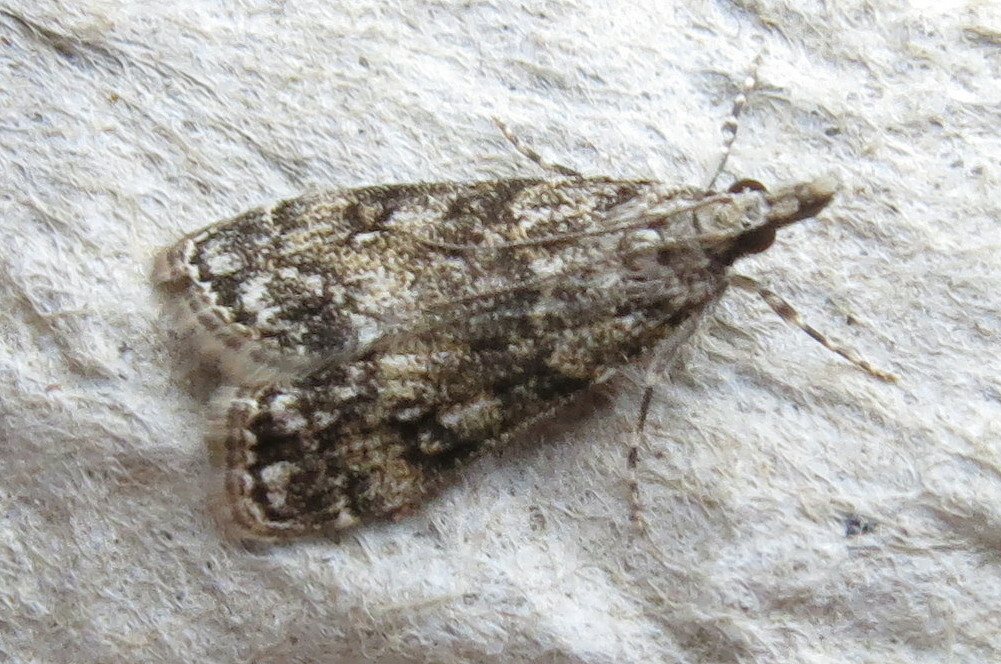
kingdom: Animalia
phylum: Arthropoda
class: Insecta
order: Lepidoptera
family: Crambidae
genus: Eudonia
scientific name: Eudonia lacustrata
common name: Little grey
